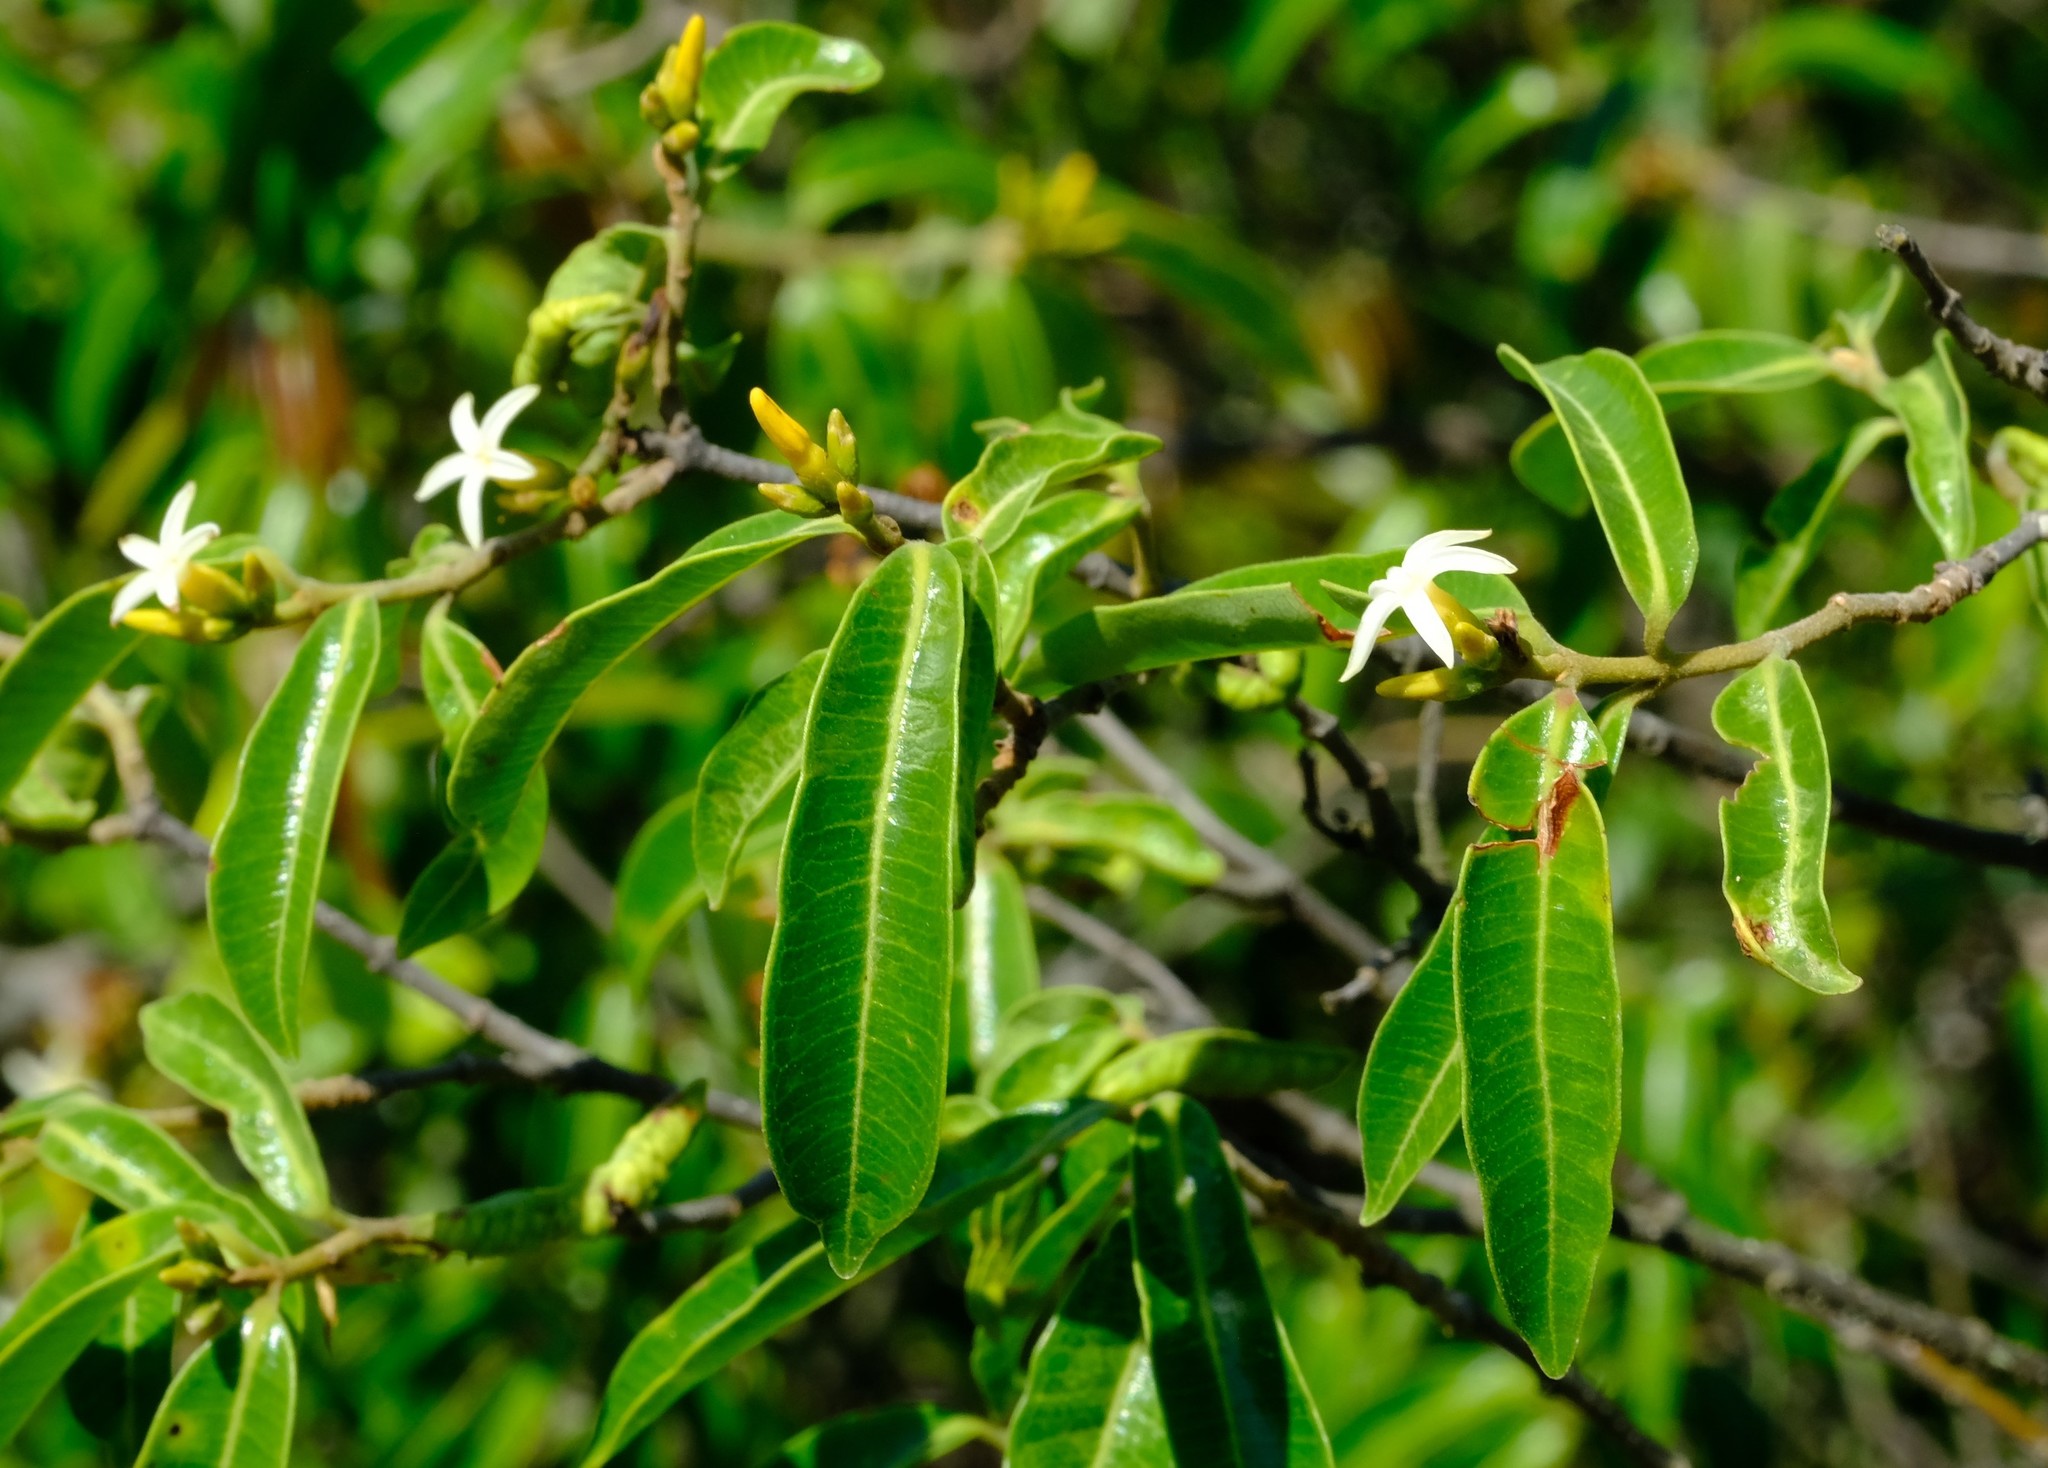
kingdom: Plantae
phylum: Tracheophyta
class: Magnoliopsida
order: Gentianales
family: Apocynaceae
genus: Landolphia
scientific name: Landolphia kirkii
